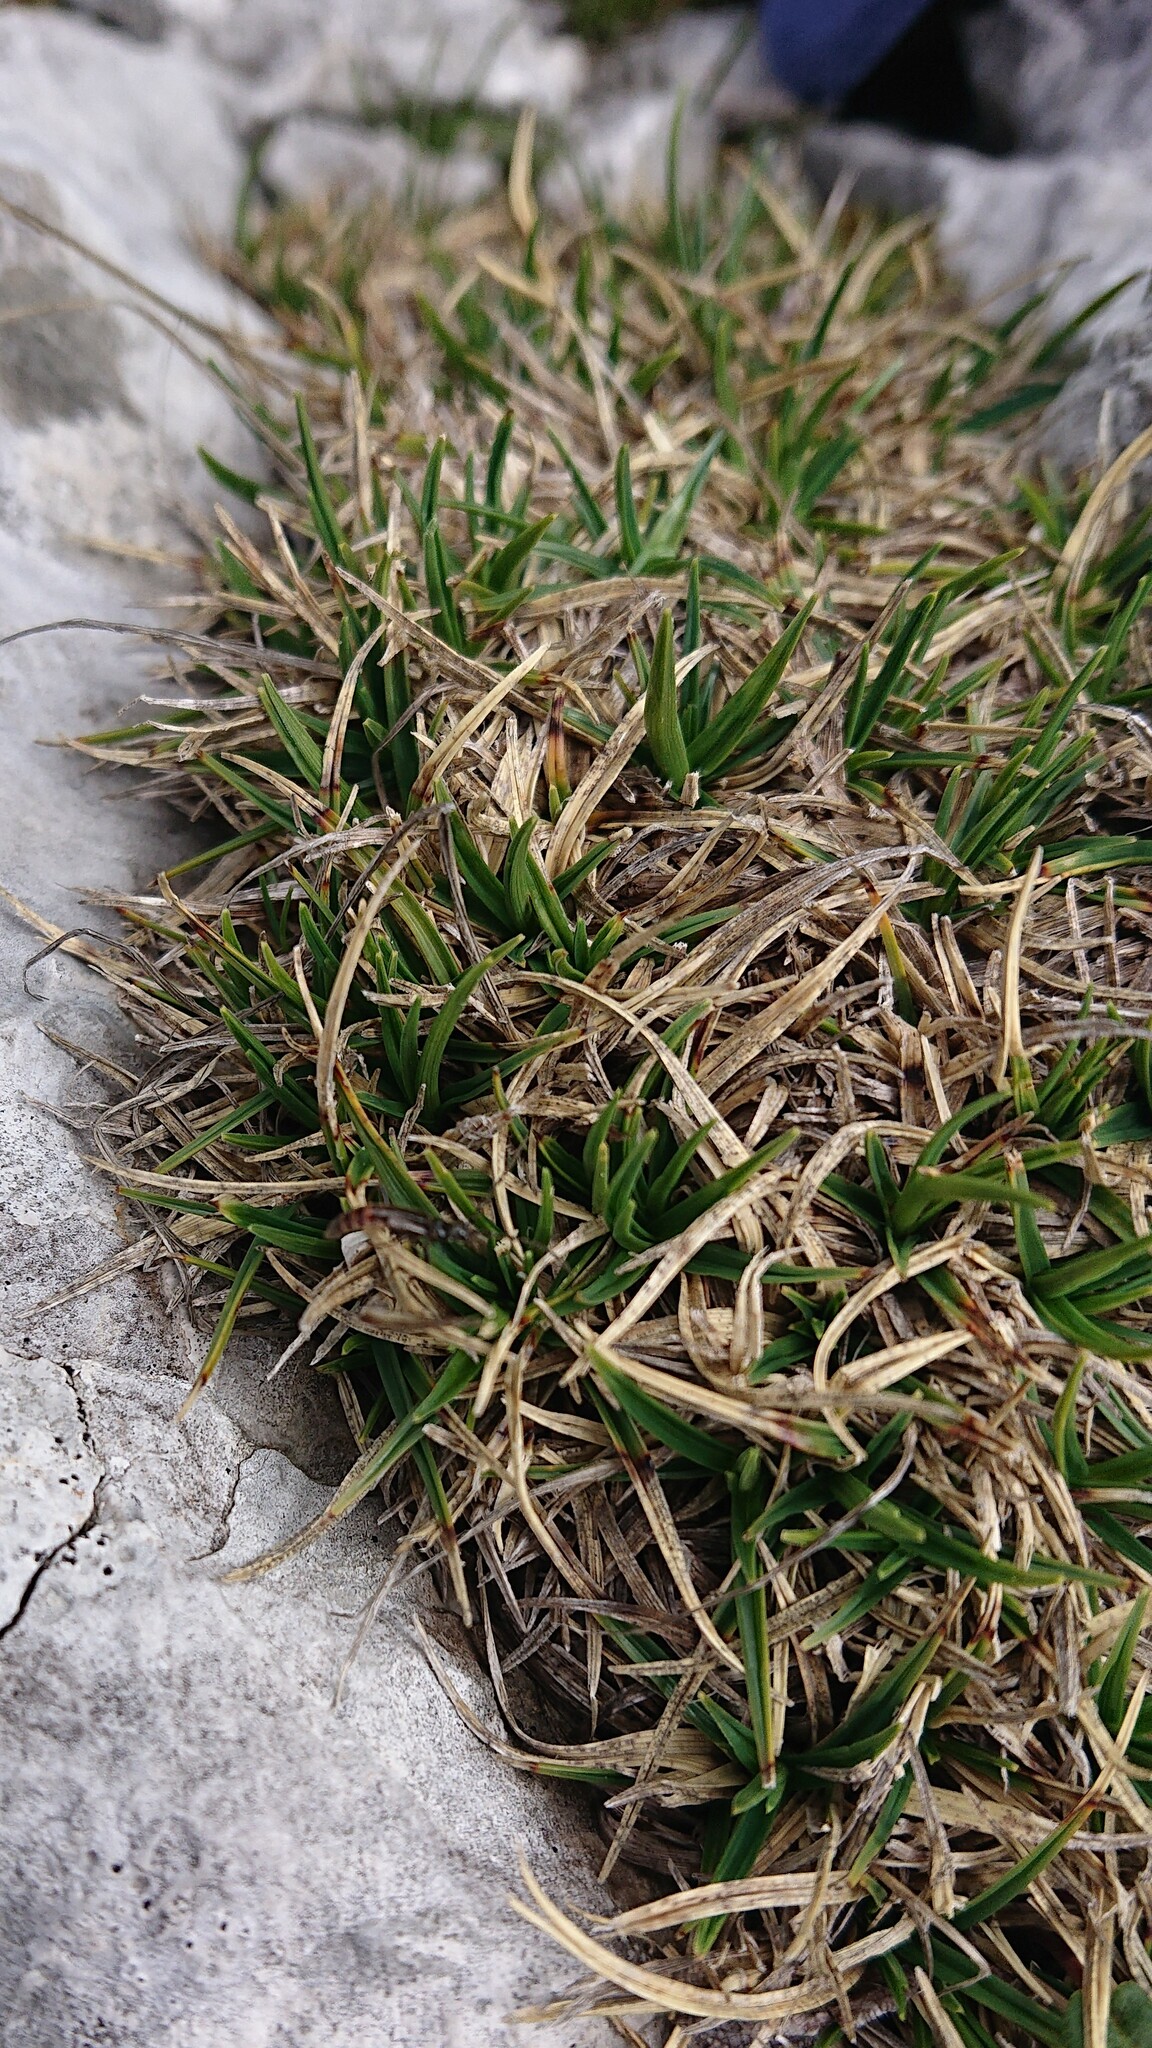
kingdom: Plantae
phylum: Tracheophyta
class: Liliopsida
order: Poales
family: Cyperaceae
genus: Carex
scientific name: Carex firma
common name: Dwarf pillow sedge
